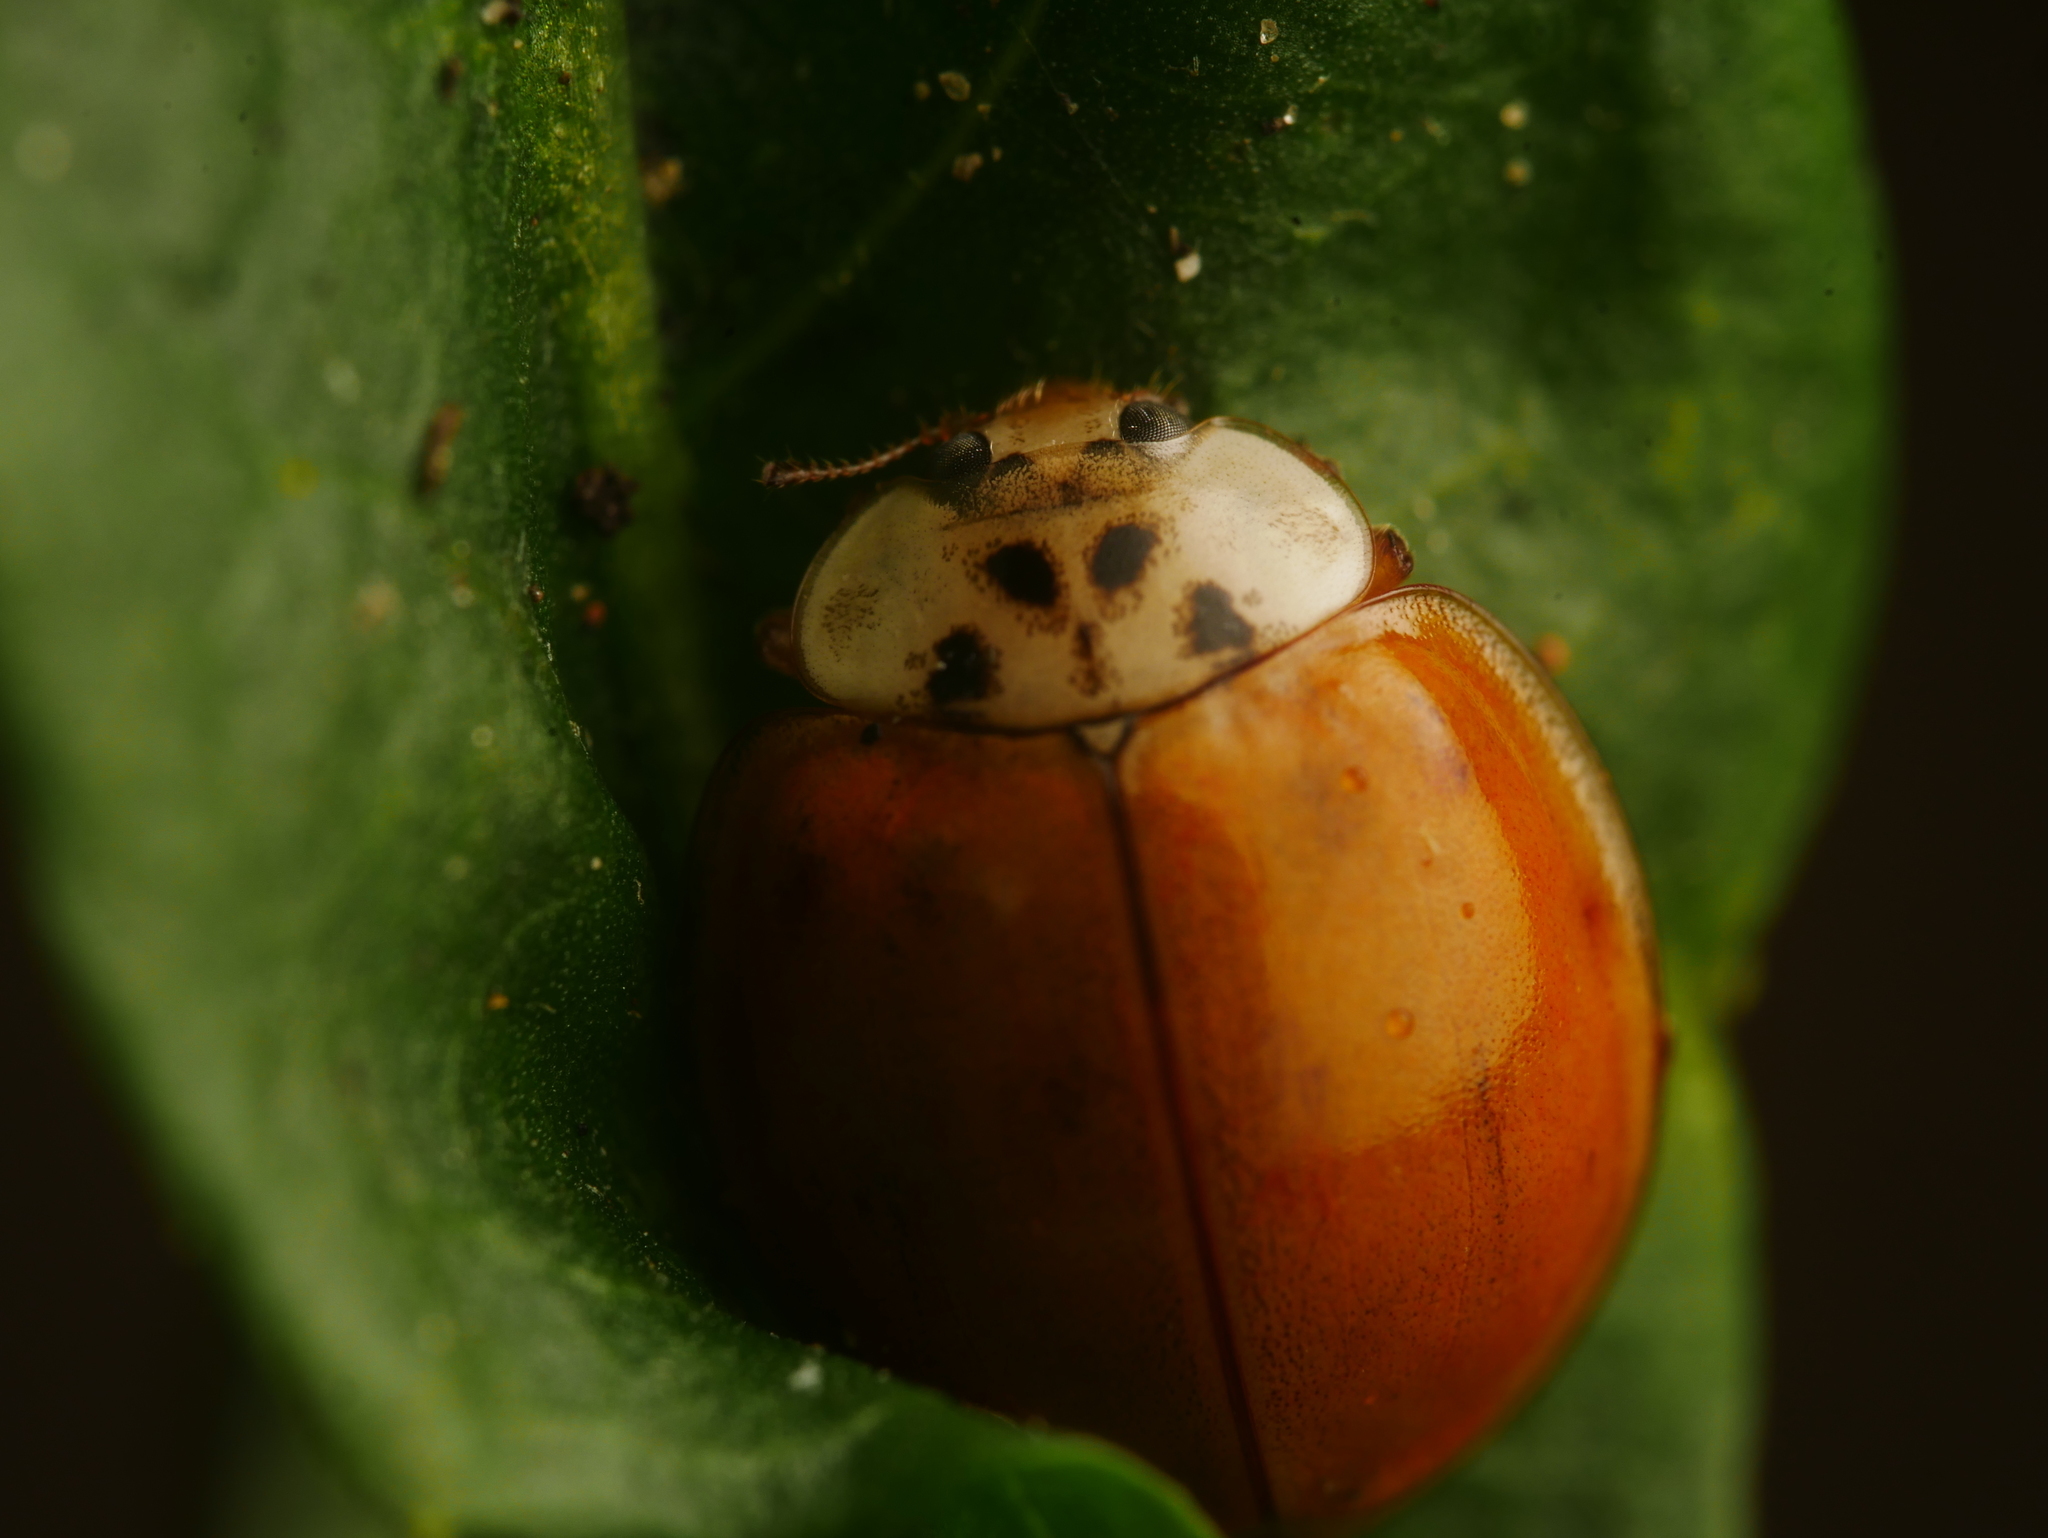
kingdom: Animalia
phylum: Arthropoda
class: Insecta
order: Coleoptera
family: Coccinellidae
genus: Harmonia
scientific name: Harmonia axyridis
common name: Harlequin ladybird
